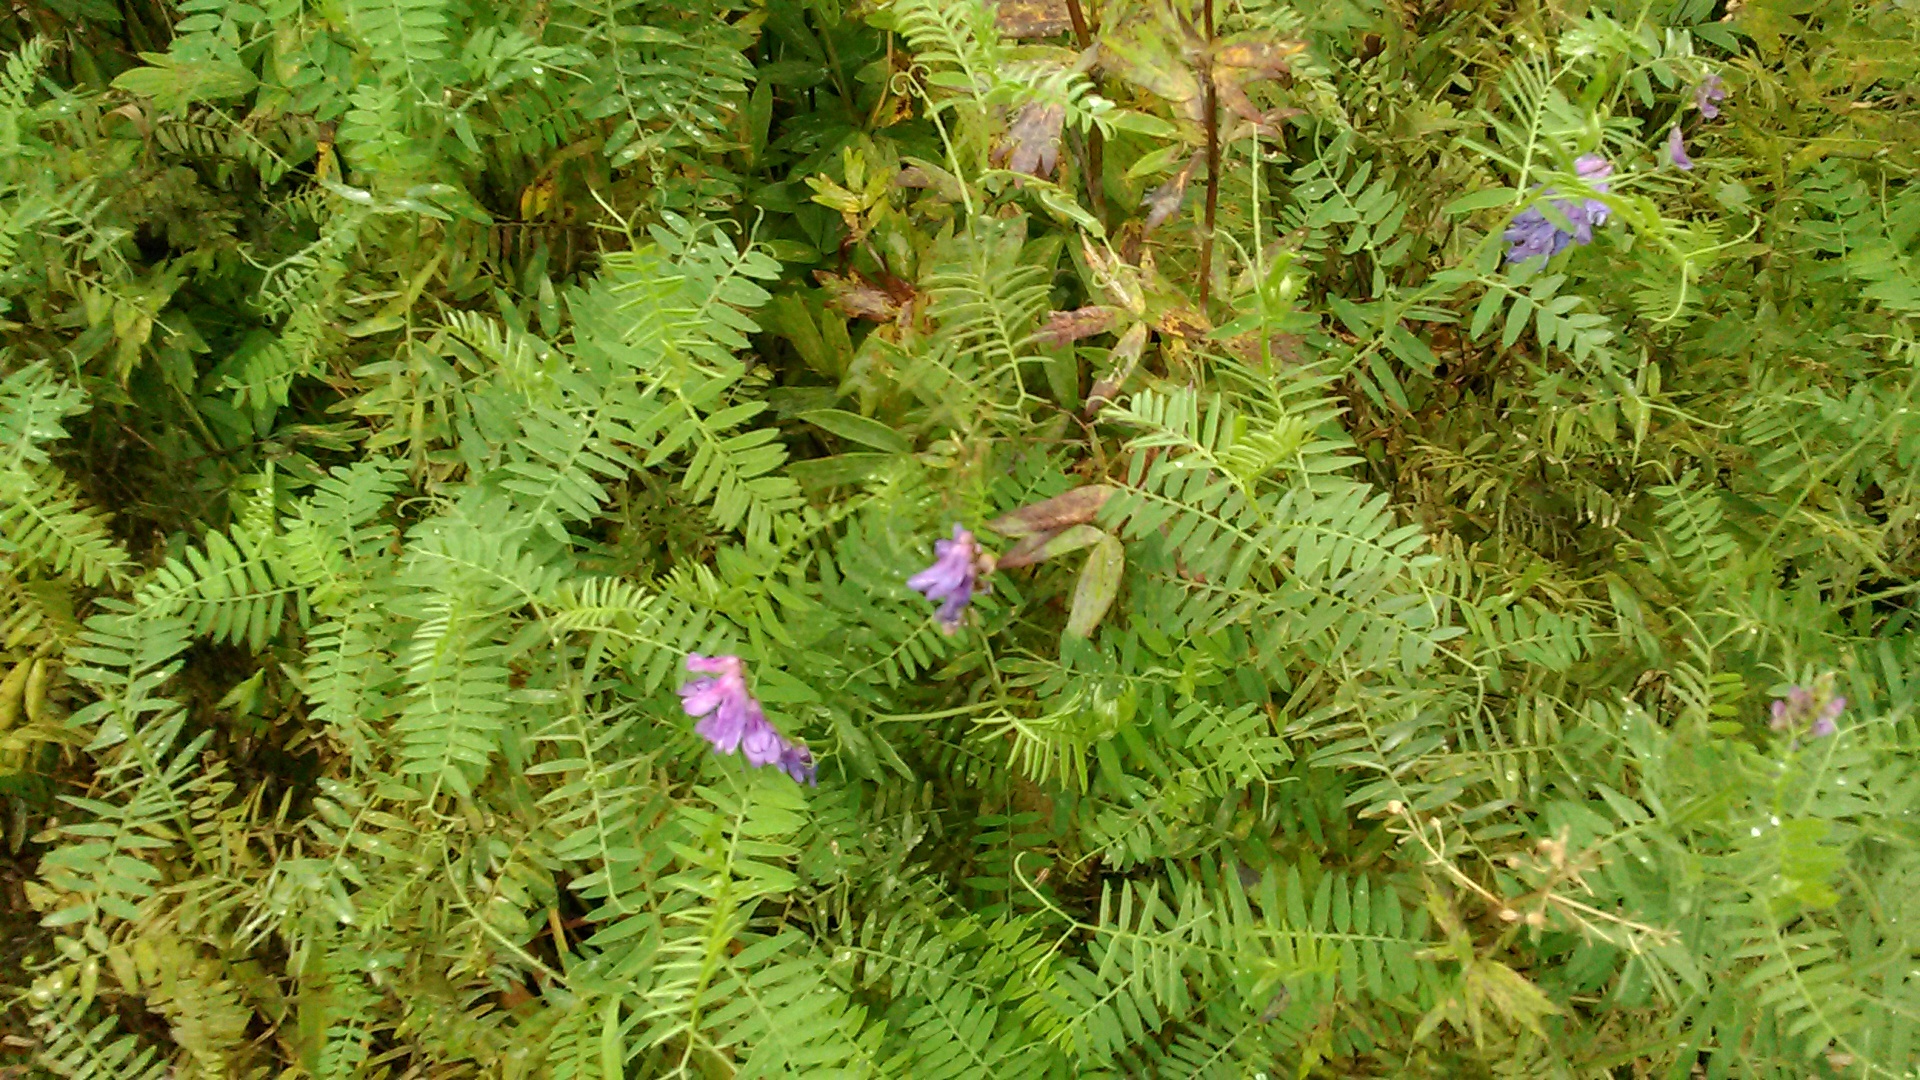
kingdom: Plantae
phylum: Tracheophyta
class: Magnoliopsida
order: Fabales
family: Fabaceae
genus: Vicia
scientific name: Vicia cracca
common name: Bird vetch
